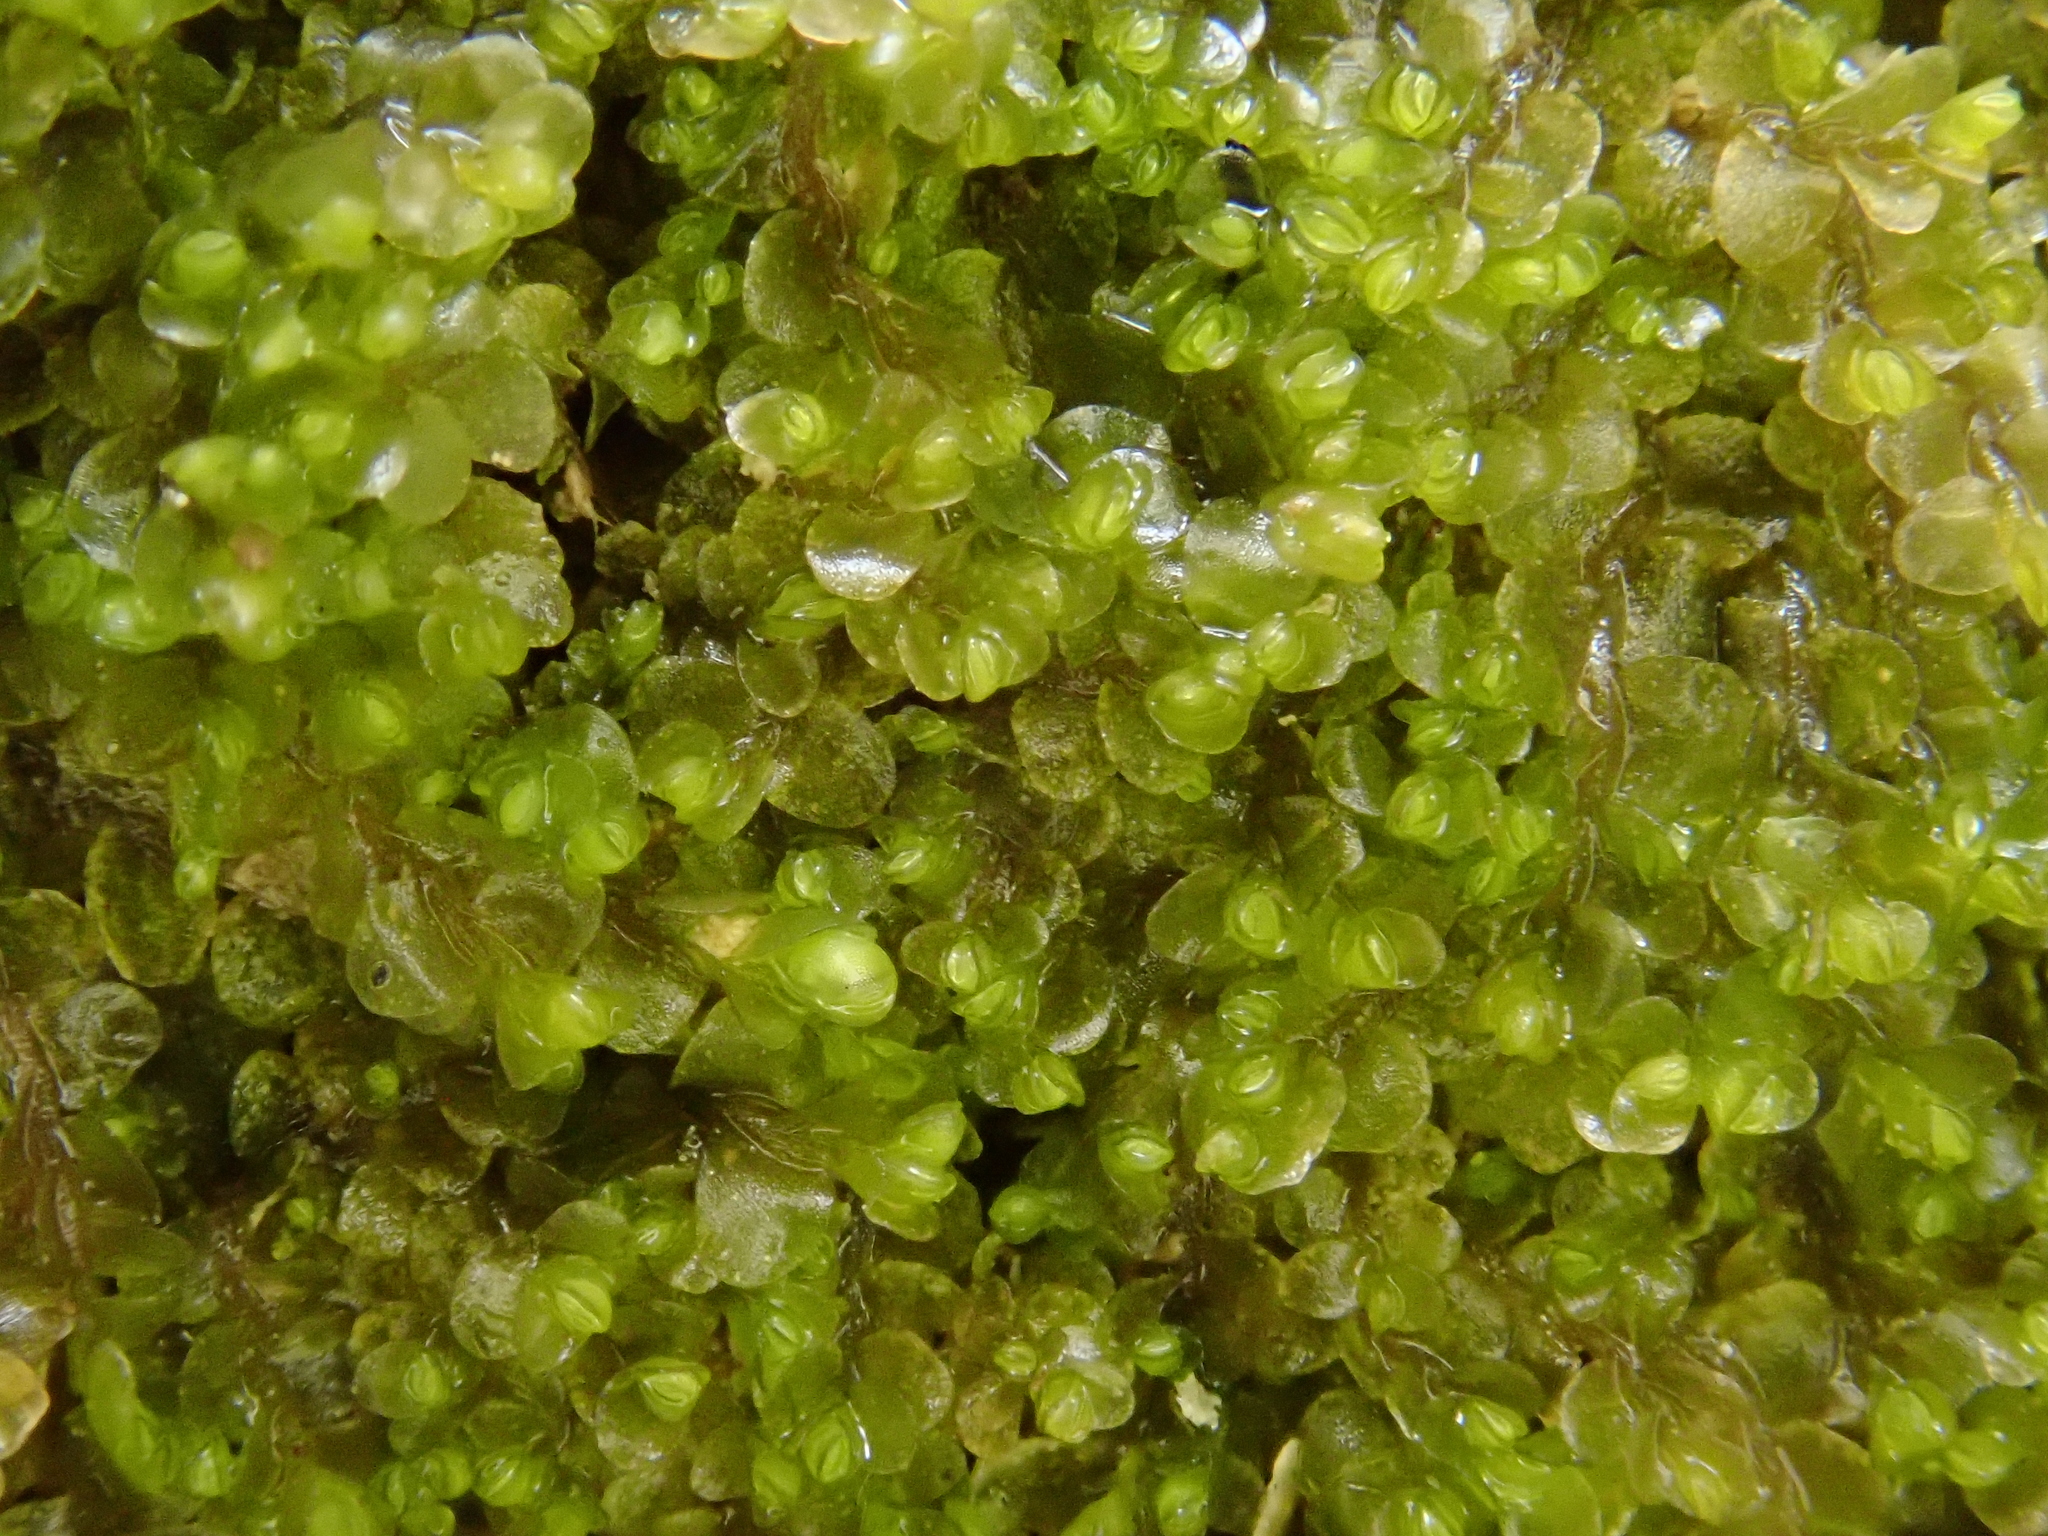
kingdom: Plantae
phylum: Marchantiophyta
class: Jungermanniopsida
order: Jungermanniales
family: Jungermanniaceae
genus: Jungermannia
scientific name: Jungermannia atrovirens
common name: Dark-green flapwort
